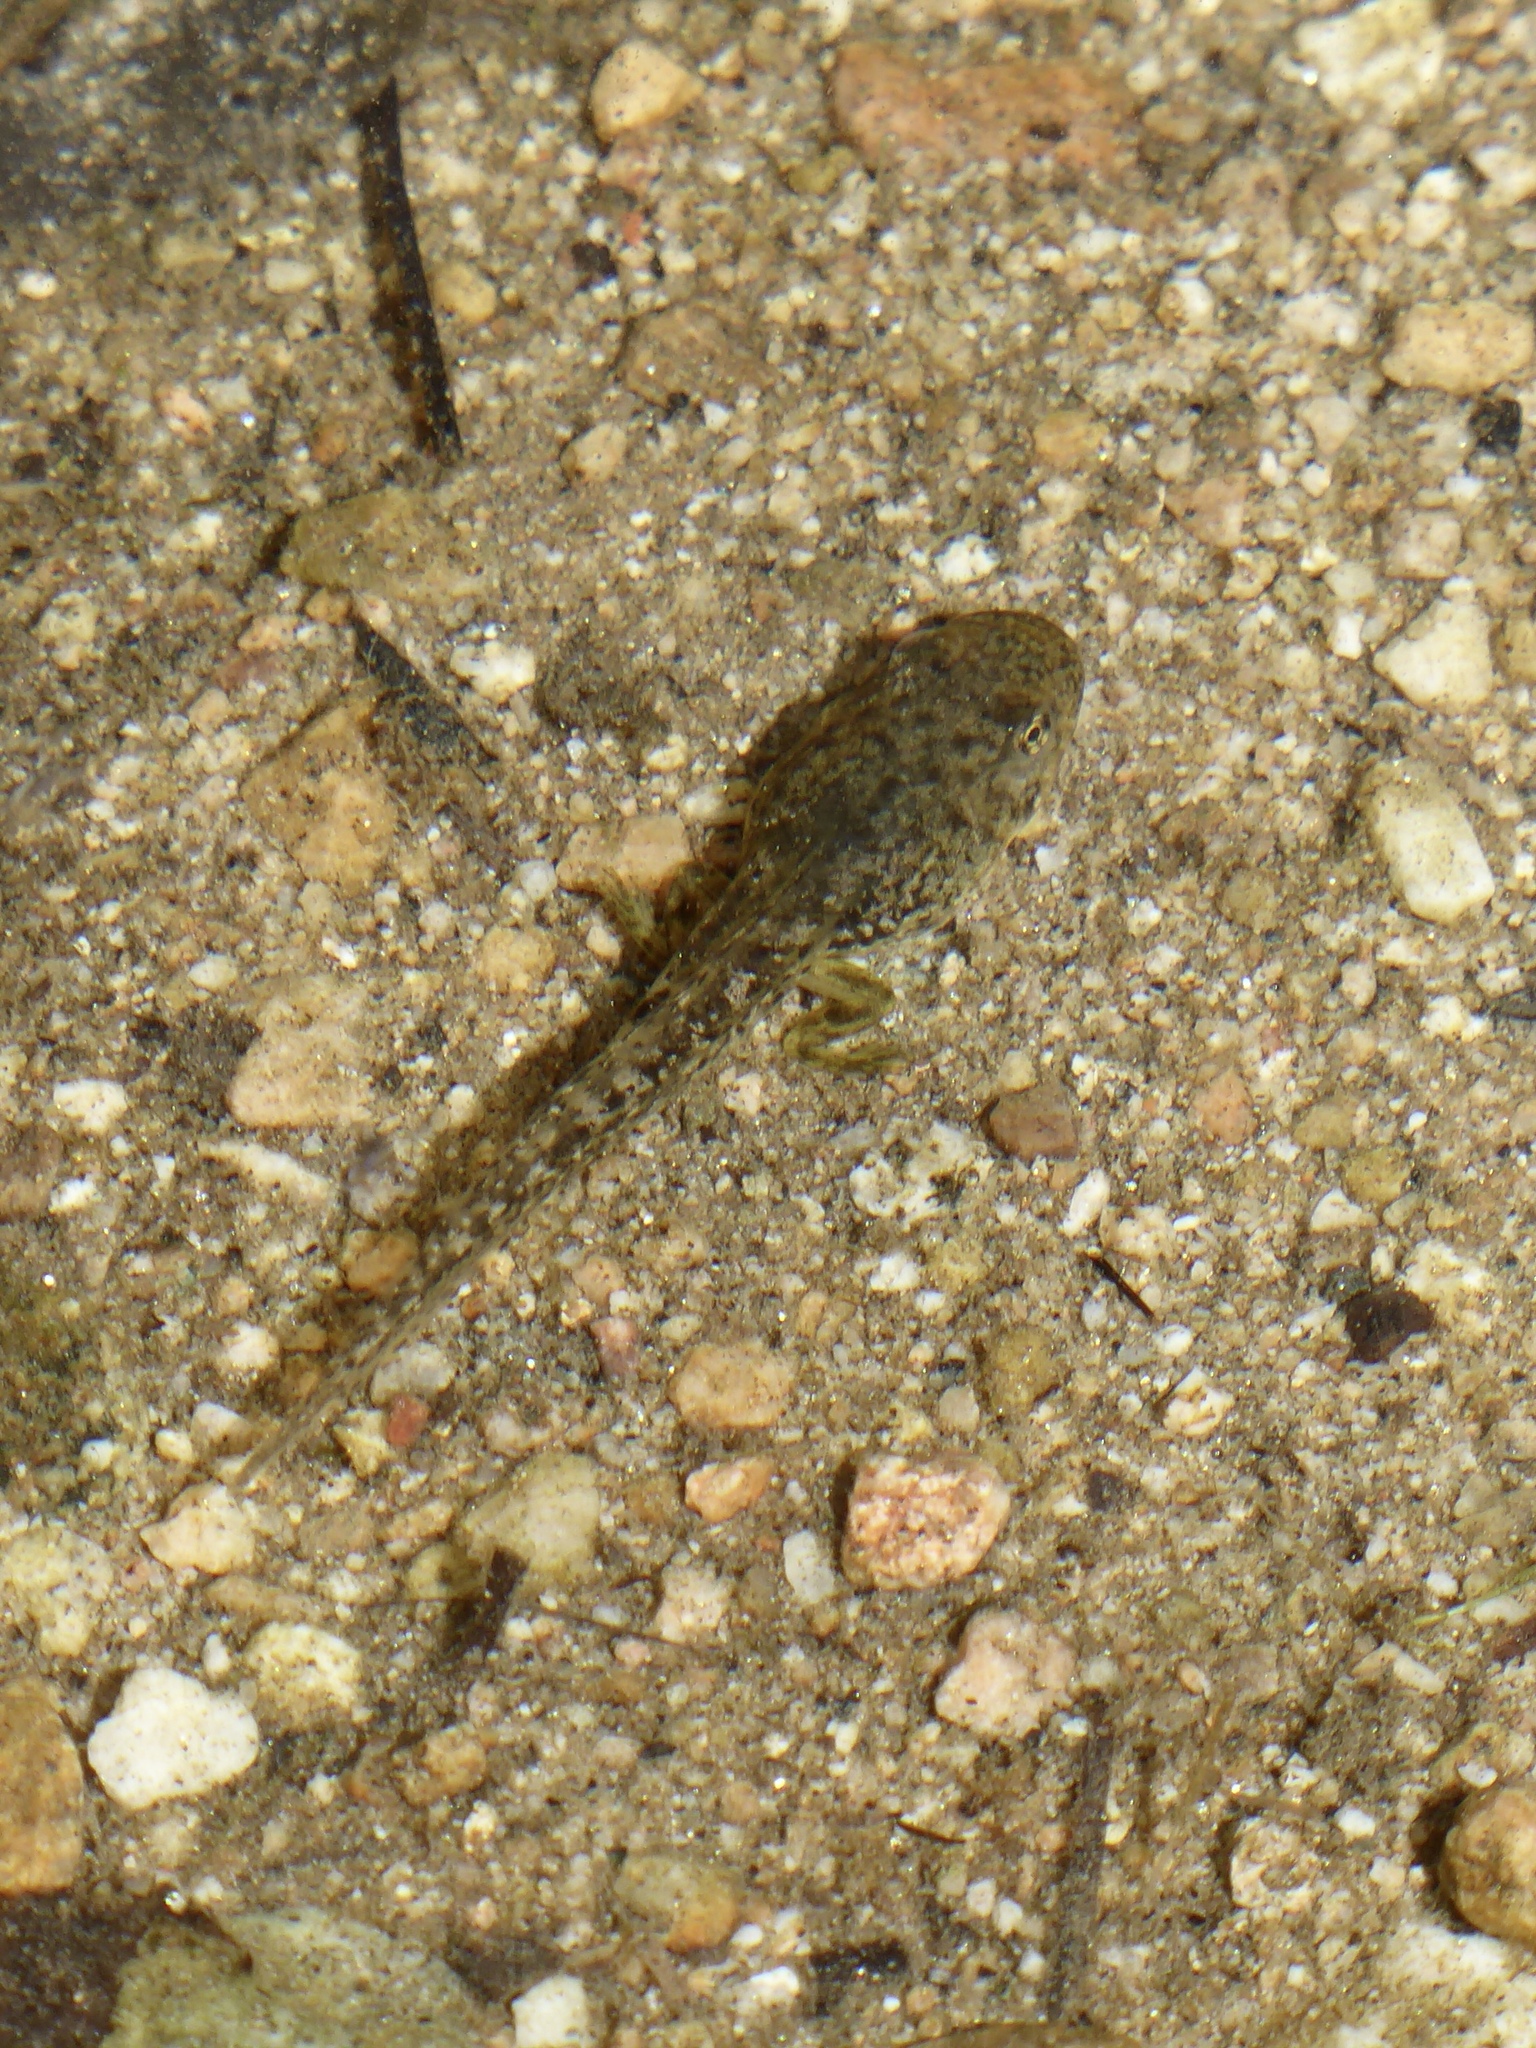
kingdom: Animalia
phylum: Chordata
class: Amphibia
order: Anura
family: Hylidae
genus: Pseudacris
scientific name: Pseudacris cadaverina
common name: California chorus frog
